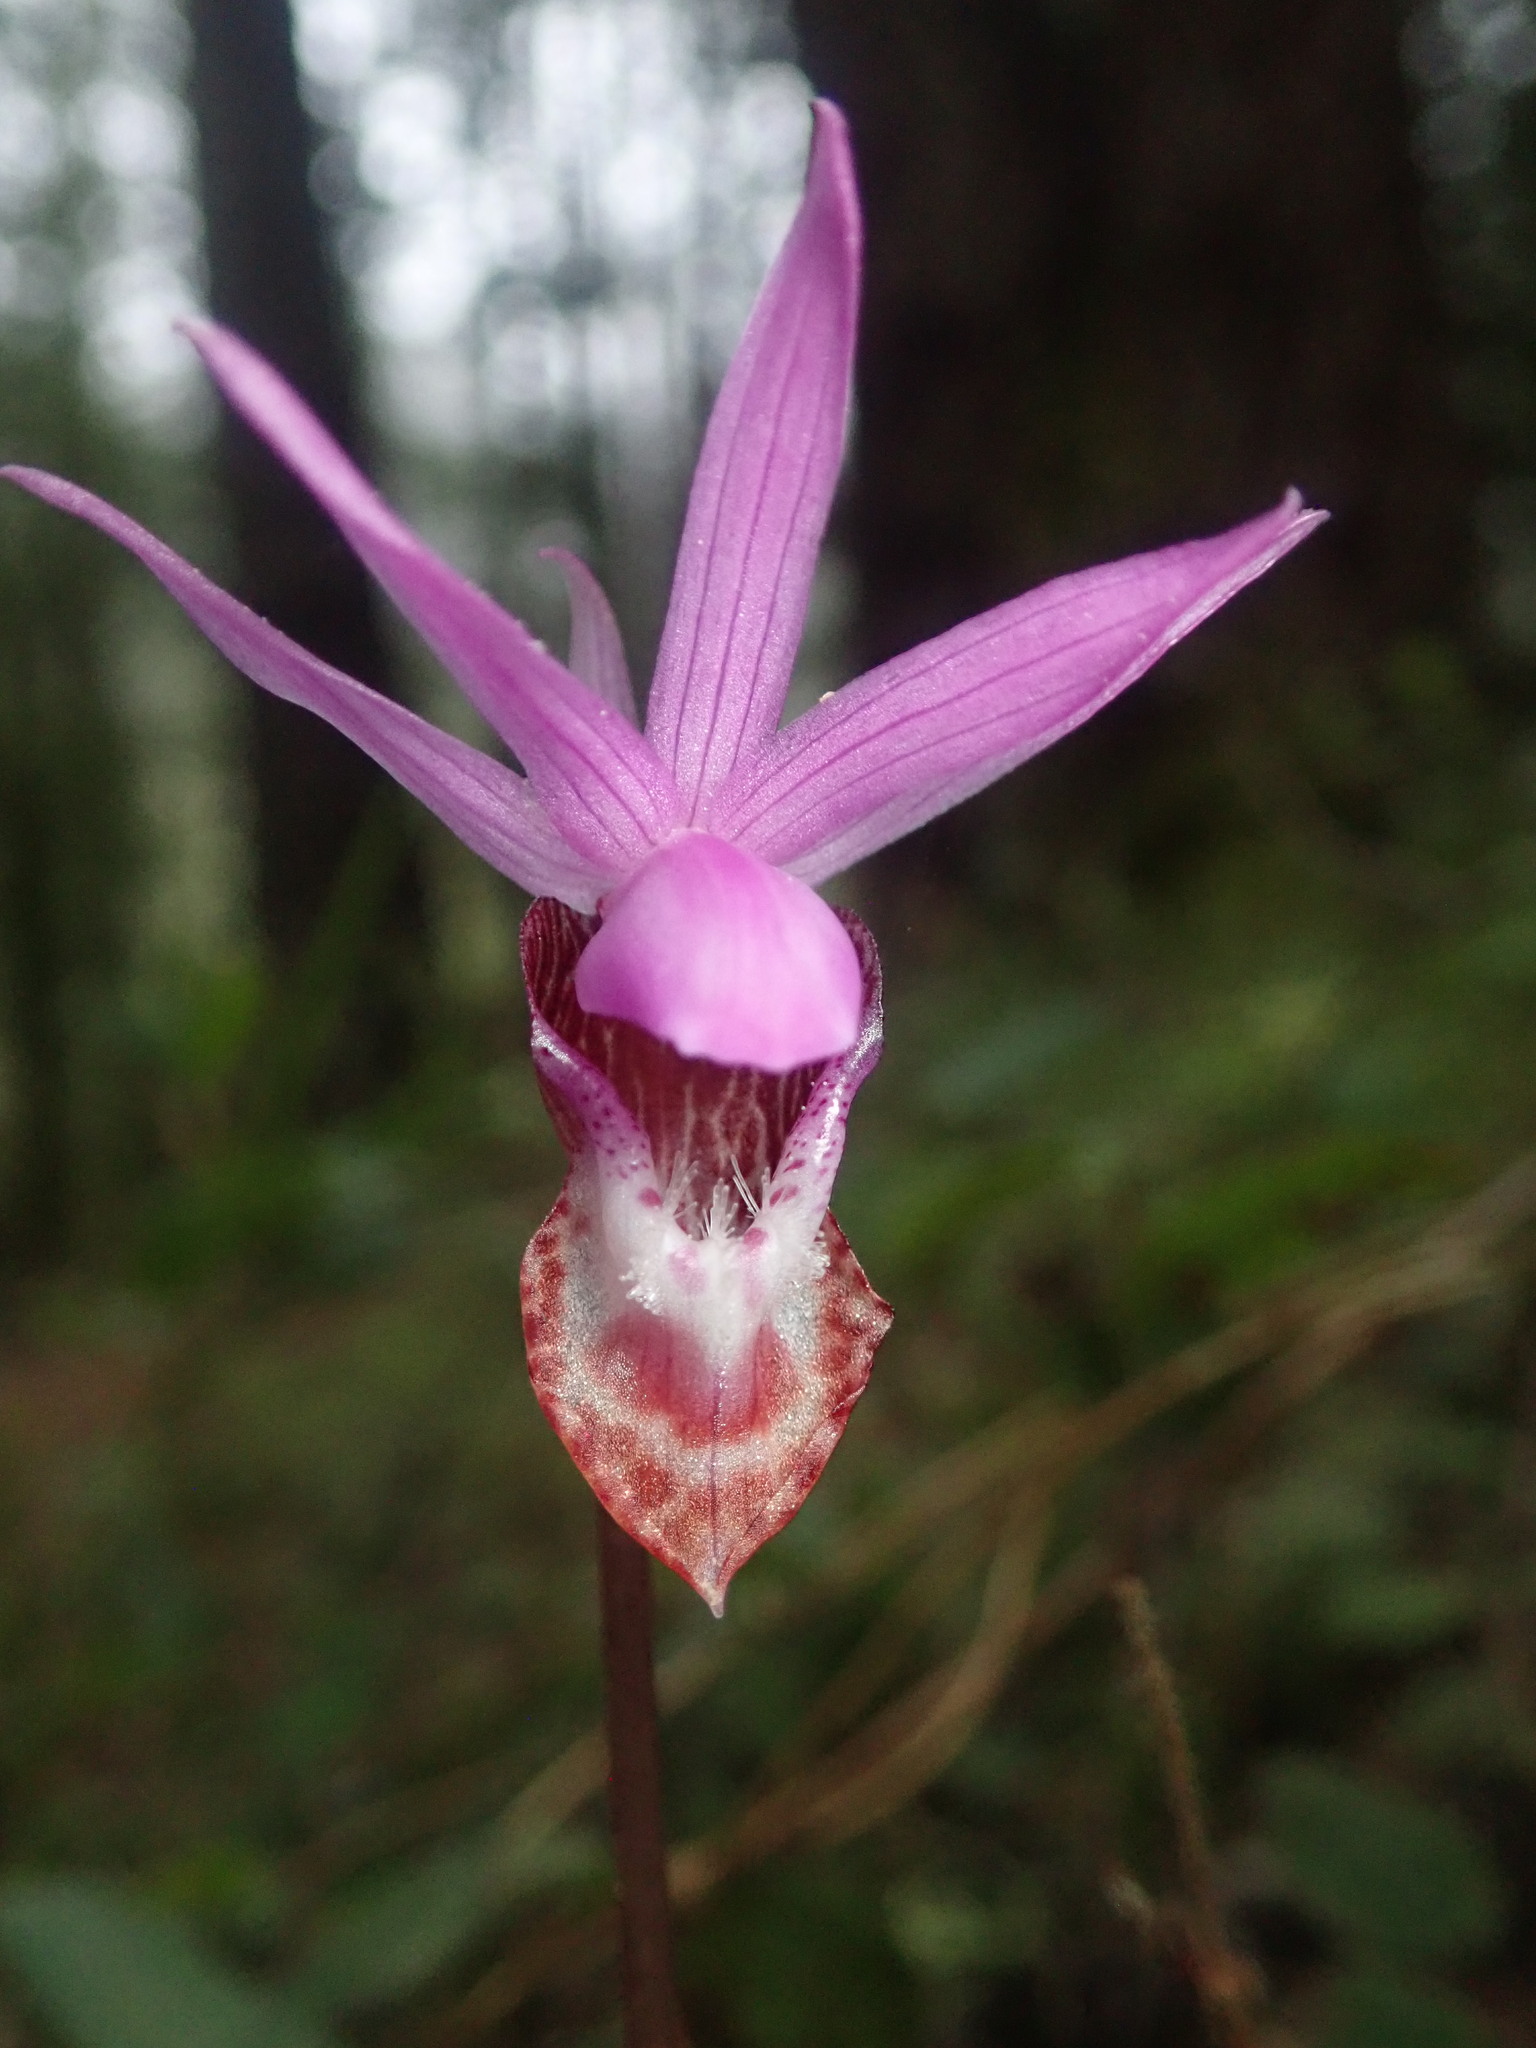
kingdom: Plantae
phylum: Tracheophyta
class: Liliopsida
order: Asparagales
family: Orchidaceae
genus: Calypso
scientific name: Calypso bulbosa
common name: Calypso
